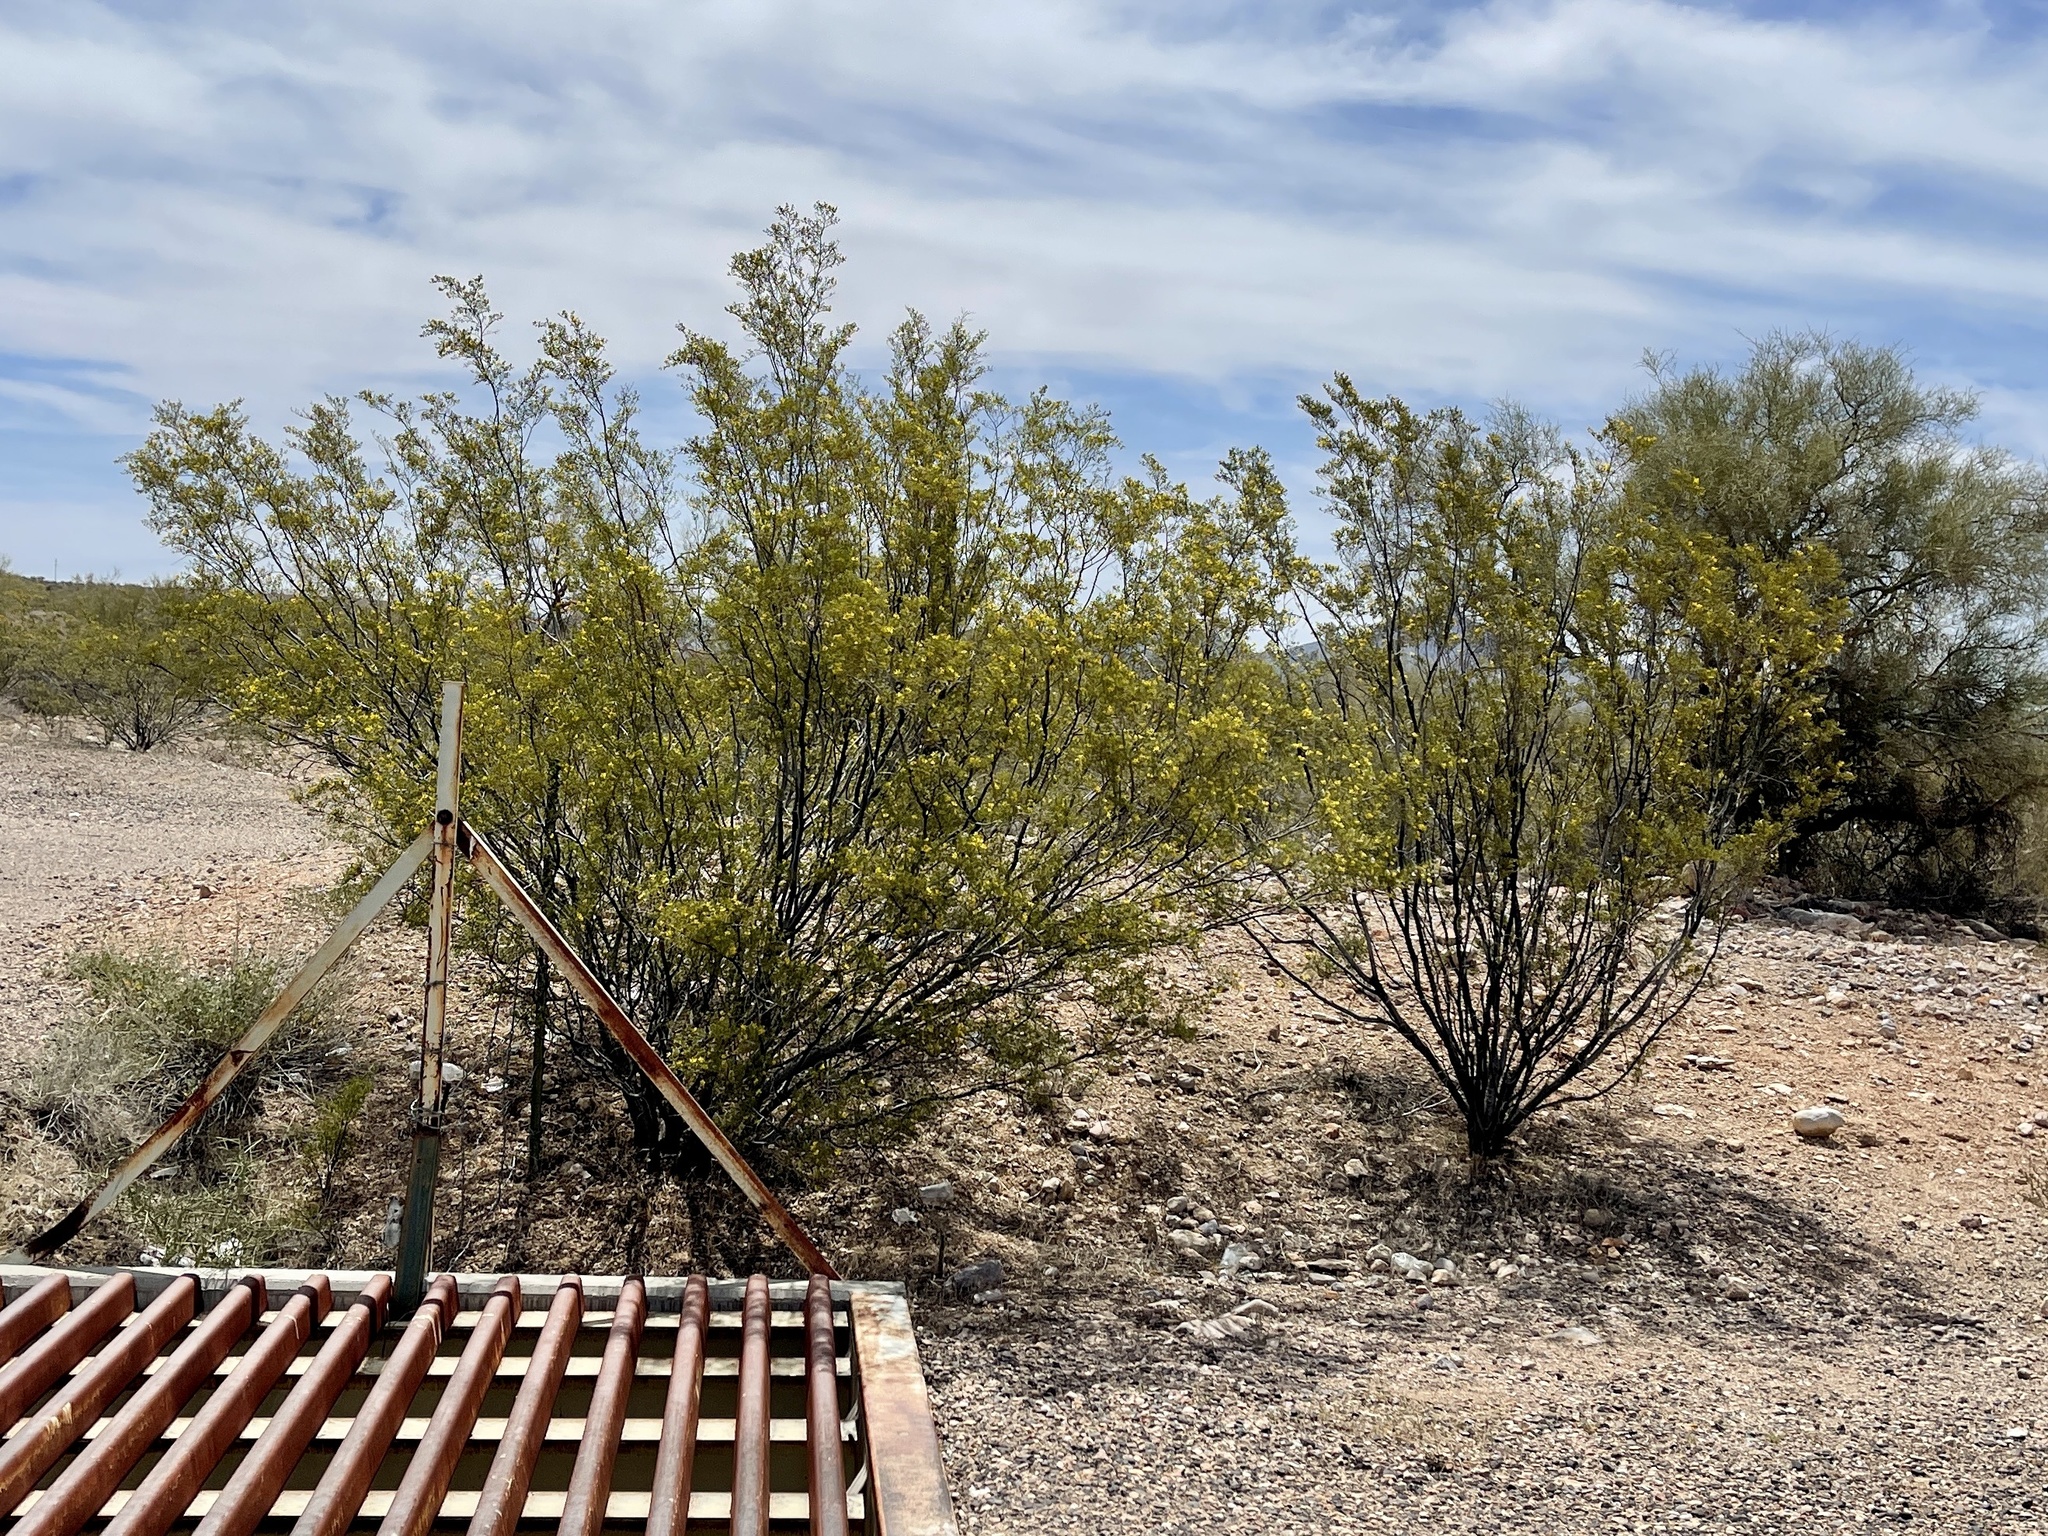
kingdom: Plantae
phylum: Tracheophyta
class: Magnoliopsida
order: Zygophyllales
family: Zygophyllaceae
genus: Larrea
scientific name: Larrea tridentata
